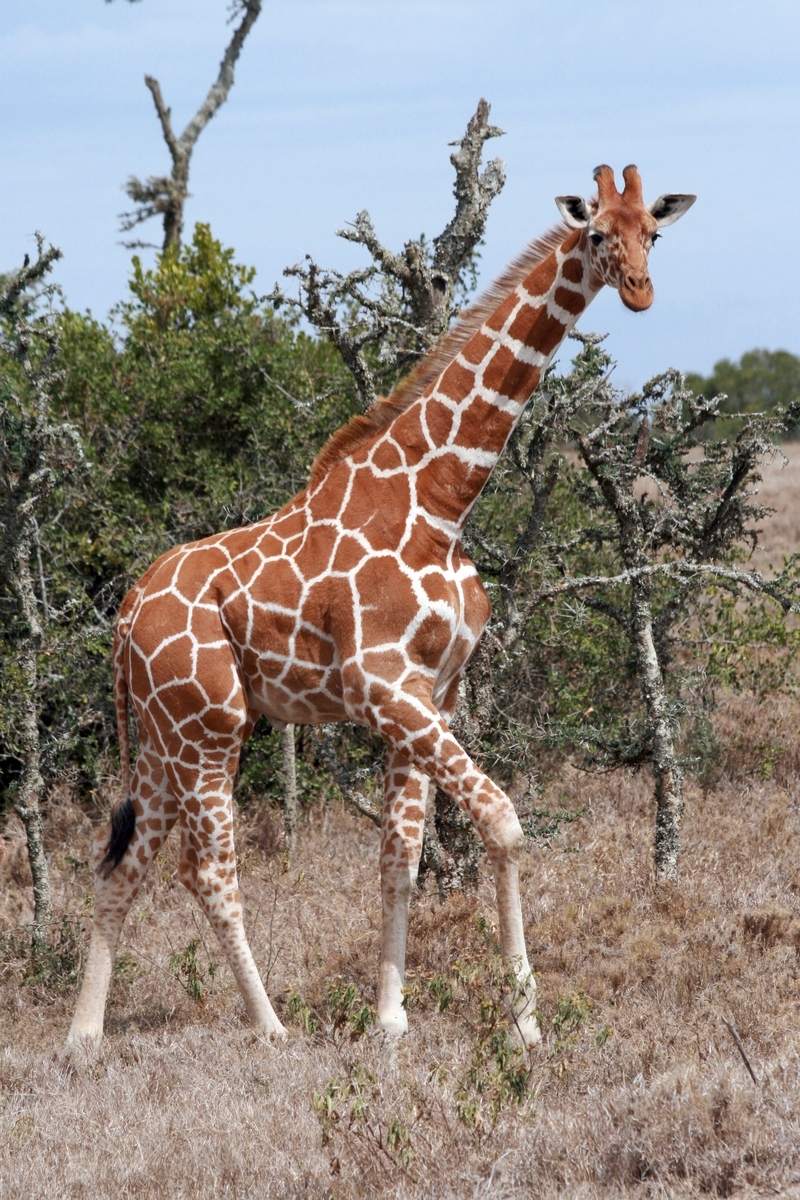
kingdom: Animalia
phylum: Chordata
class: Mammalia
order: Artiodactyla
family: Giraffidae
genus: Giraffa
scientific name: Giraffa reticulata
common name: Reticulated giraffe
